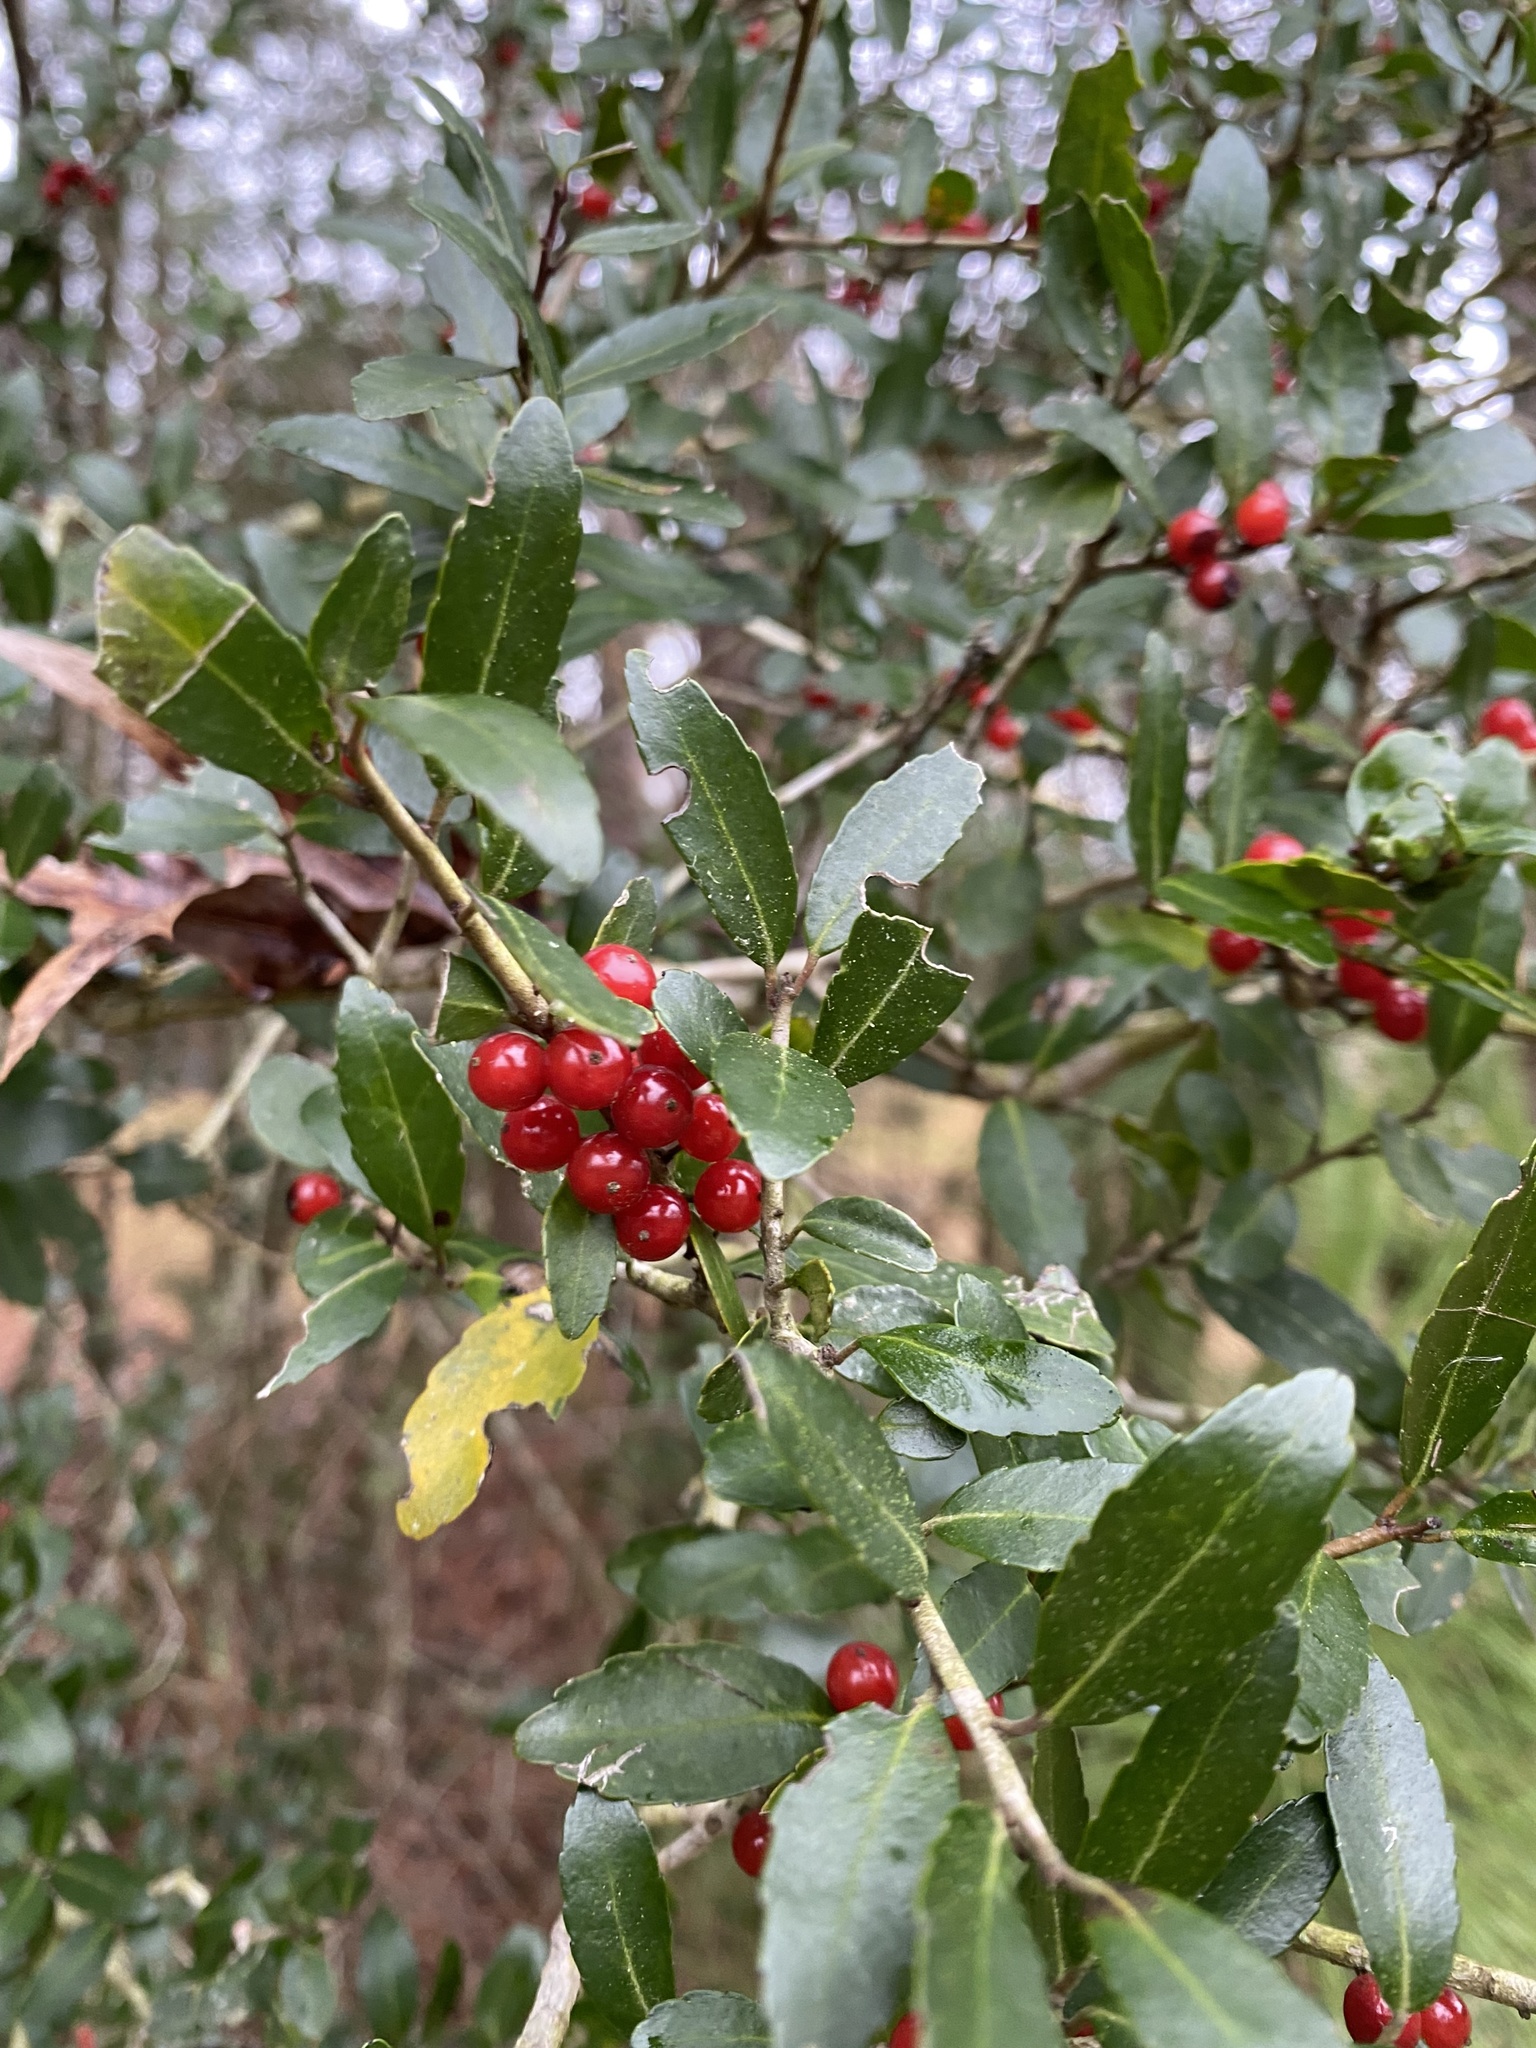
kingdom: Plantae
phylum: Tracheophyta
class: Magnoliopsida
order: Aquifoliales
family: Aquifoliaceae
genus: Ilex
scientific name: Ilex vomitoria
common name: Yaupon holly
